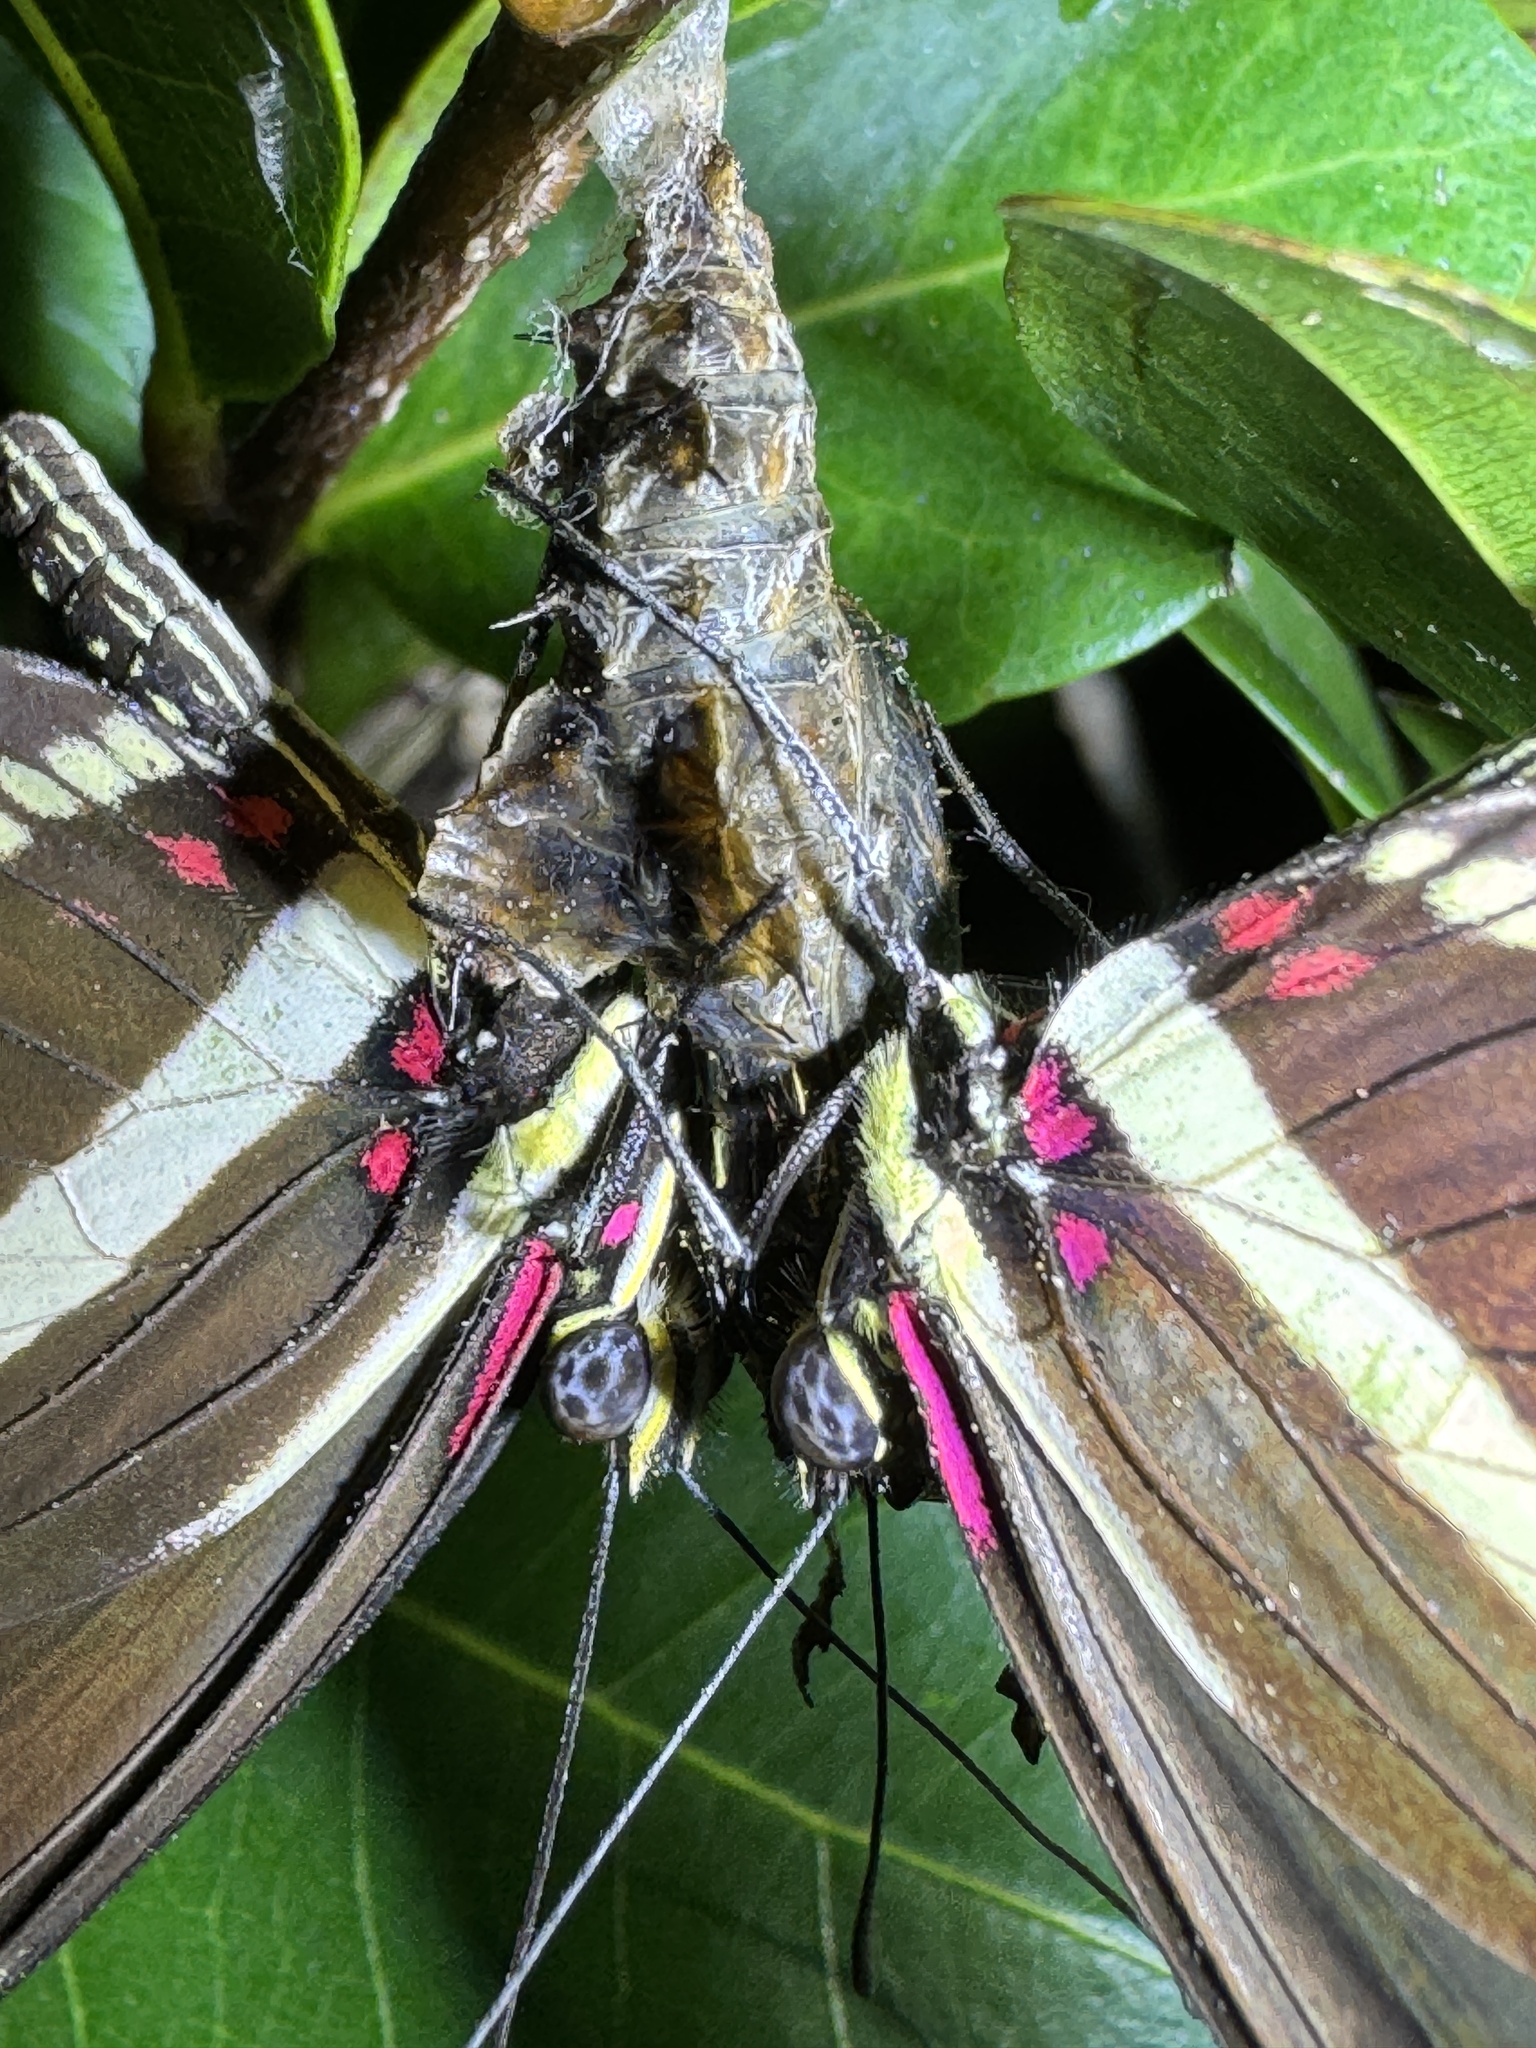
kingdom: Animalia
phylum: Arthropoda
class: Insecta
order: Lepidoptera
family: Nymphalidae
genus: Heliconius
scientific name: Heliconius charithonia
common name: Zebra long wing
